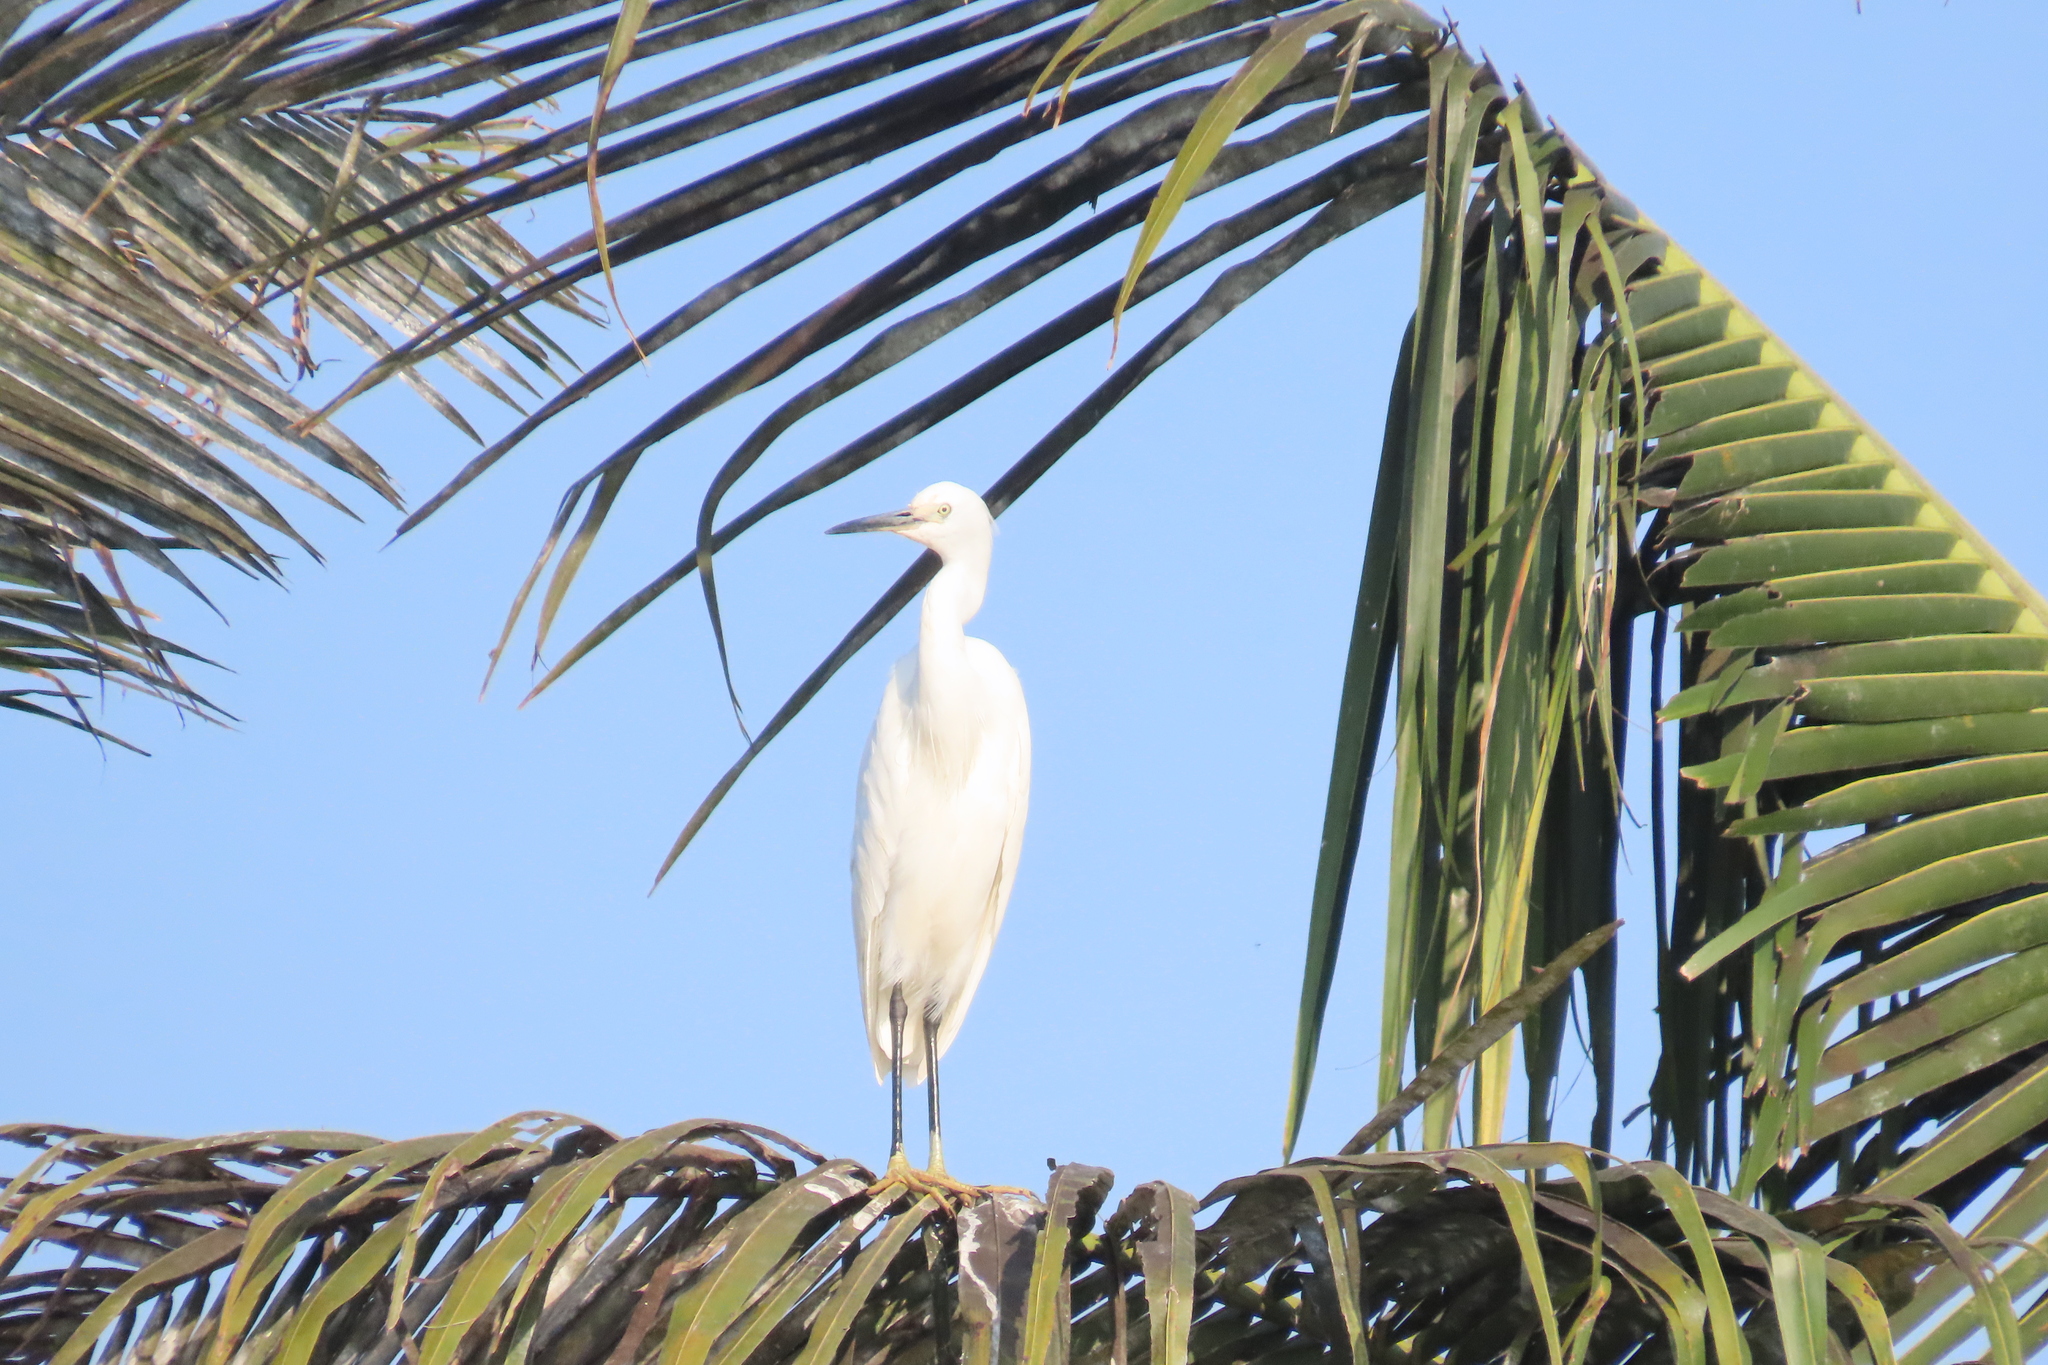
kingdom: Animalia
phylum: Chordata
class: Aves
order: Pelecaniformes
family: Ardeidae
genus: Egretta
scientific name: Egretta garzetta
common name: Little egret
